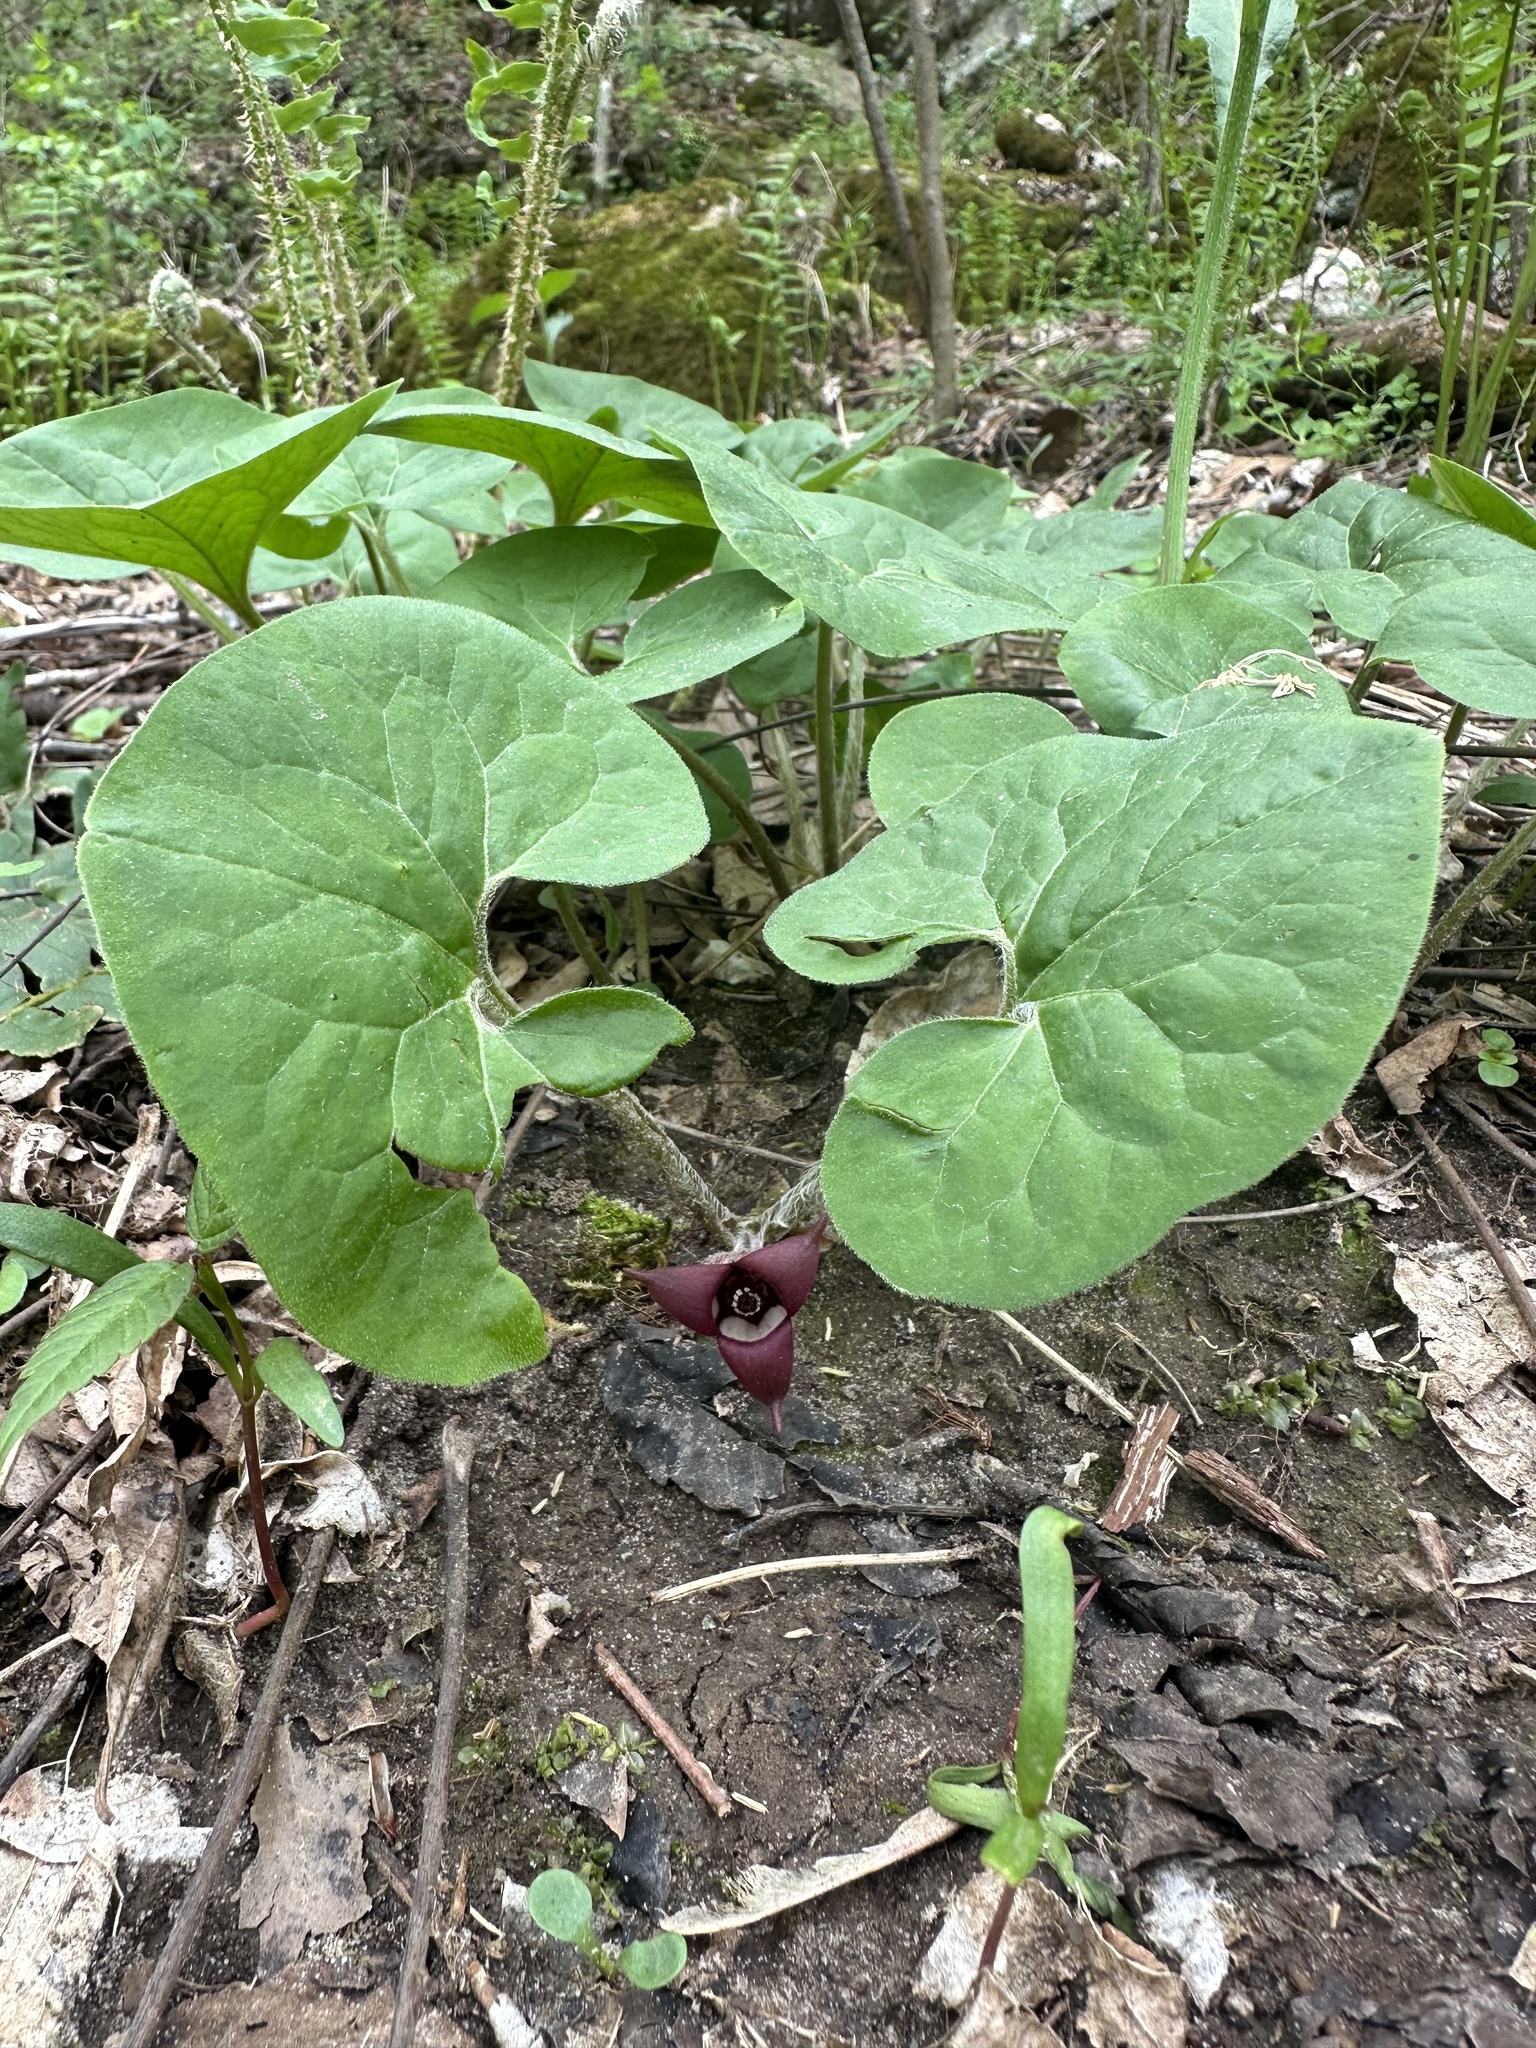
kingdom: Plantae
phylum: Tracheophyta
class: Magnoliopsida
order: Piperales
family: Aristolochiaceae
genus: Asarum
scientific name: Asarum canadense
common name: Wild ginger
